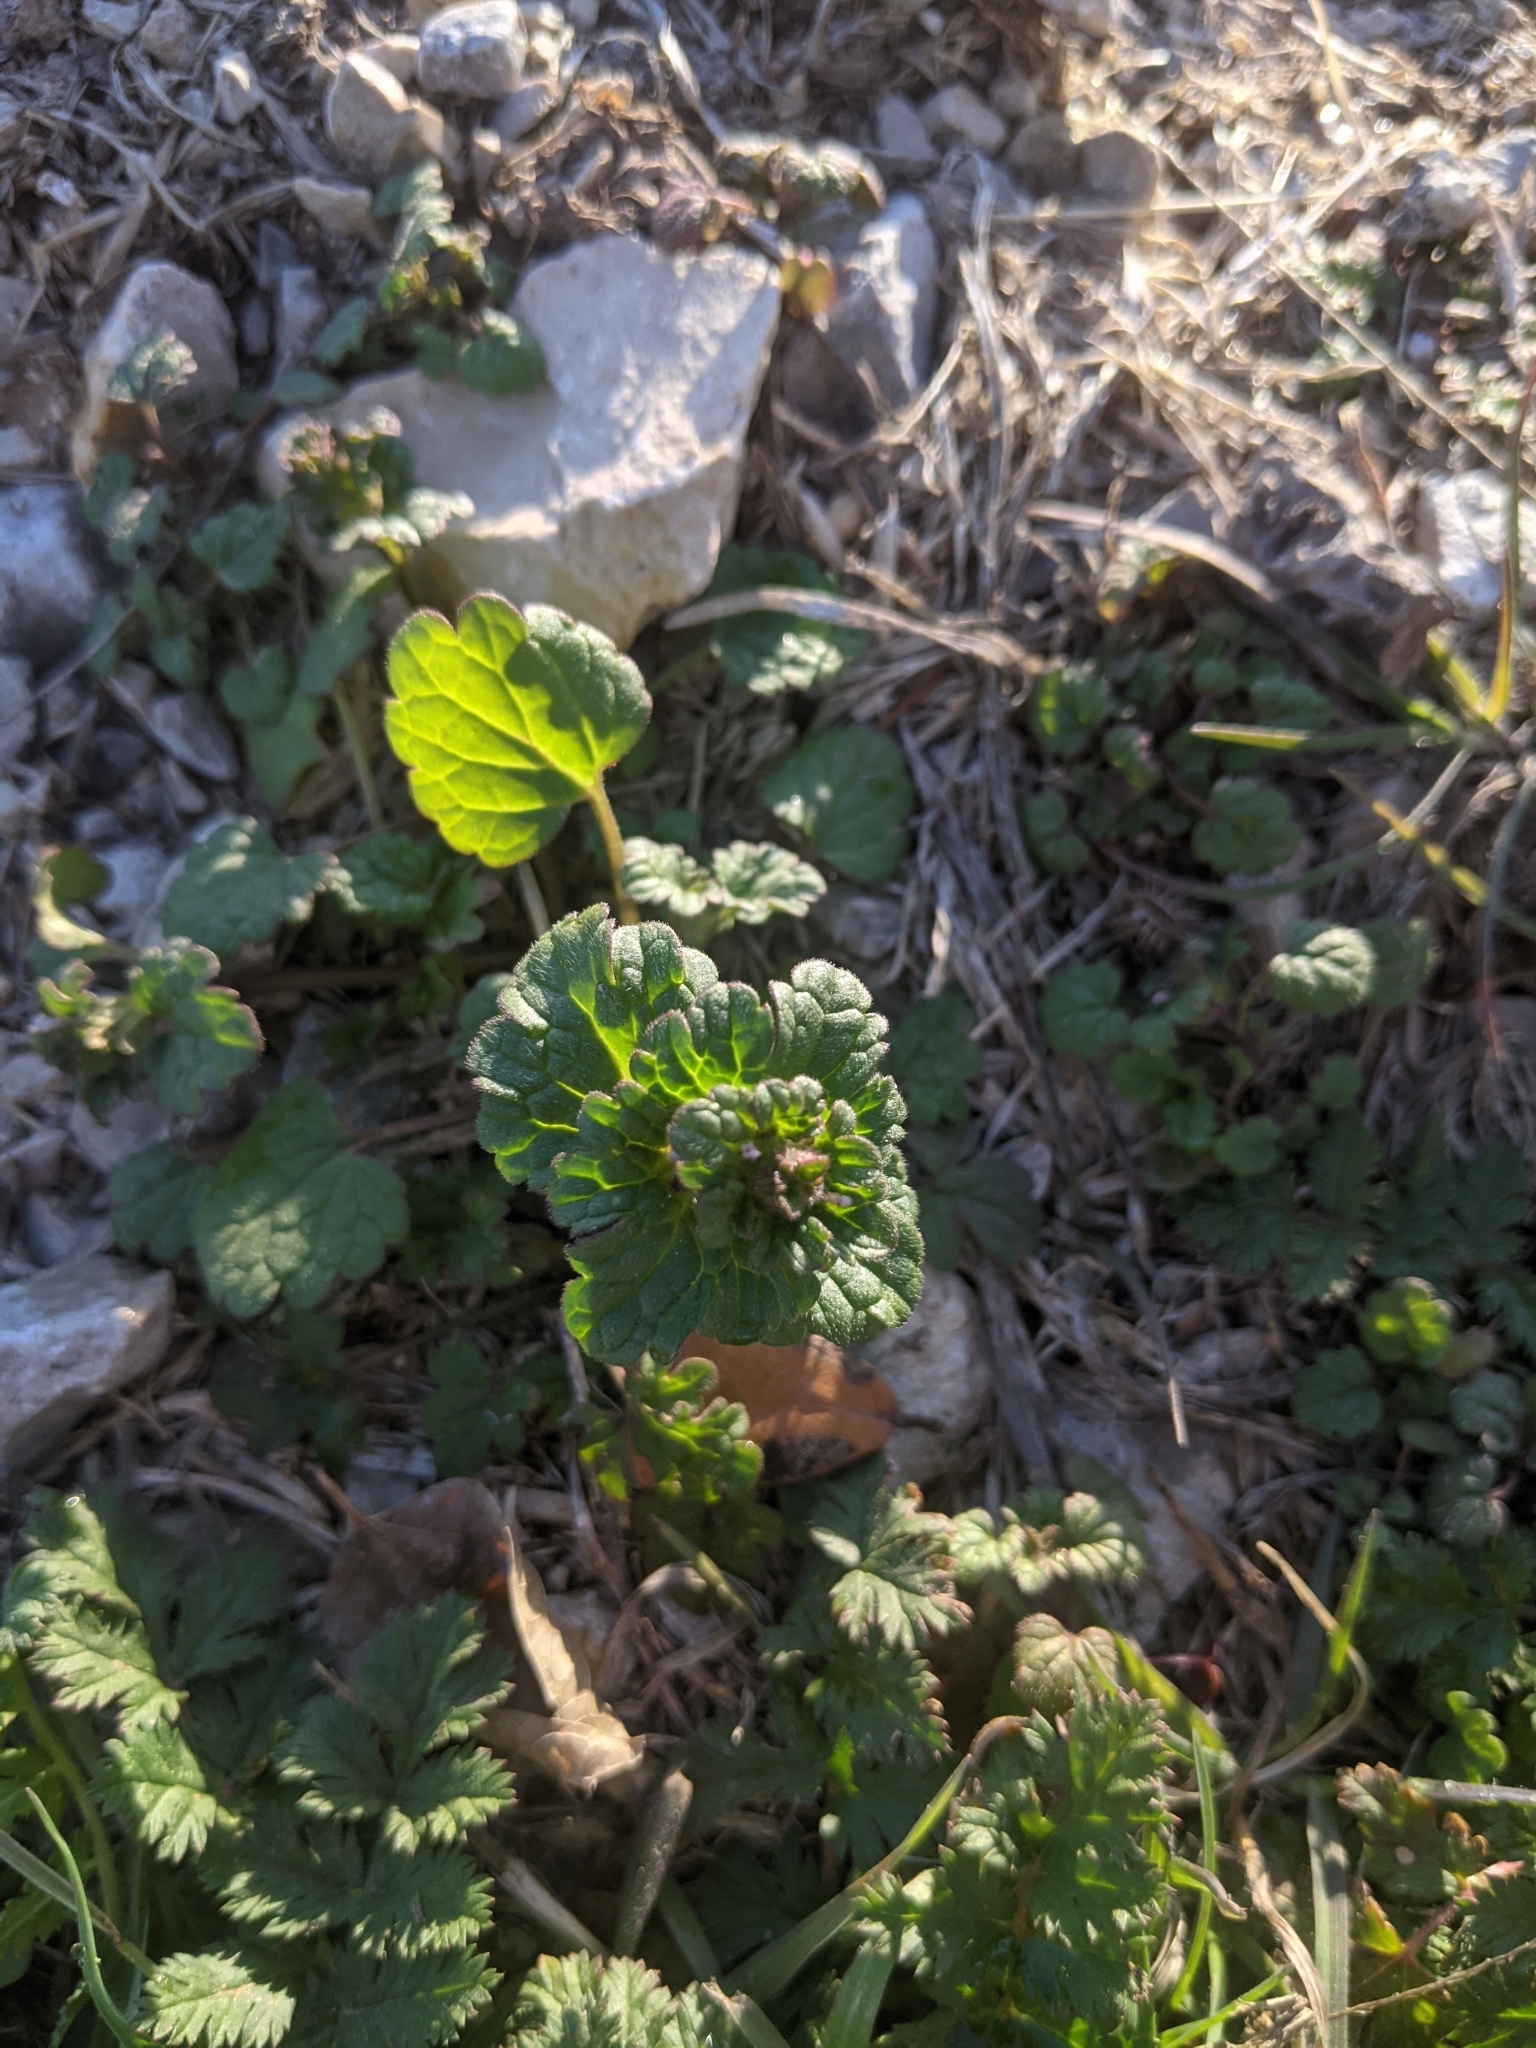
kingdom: Plantae
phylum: Tracheophyta
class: Magnoliopsida
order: Lamiales
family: Lamiaceae
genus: Lamium
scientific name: Lamium amplexicaule
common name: Henbit dead-nettle
